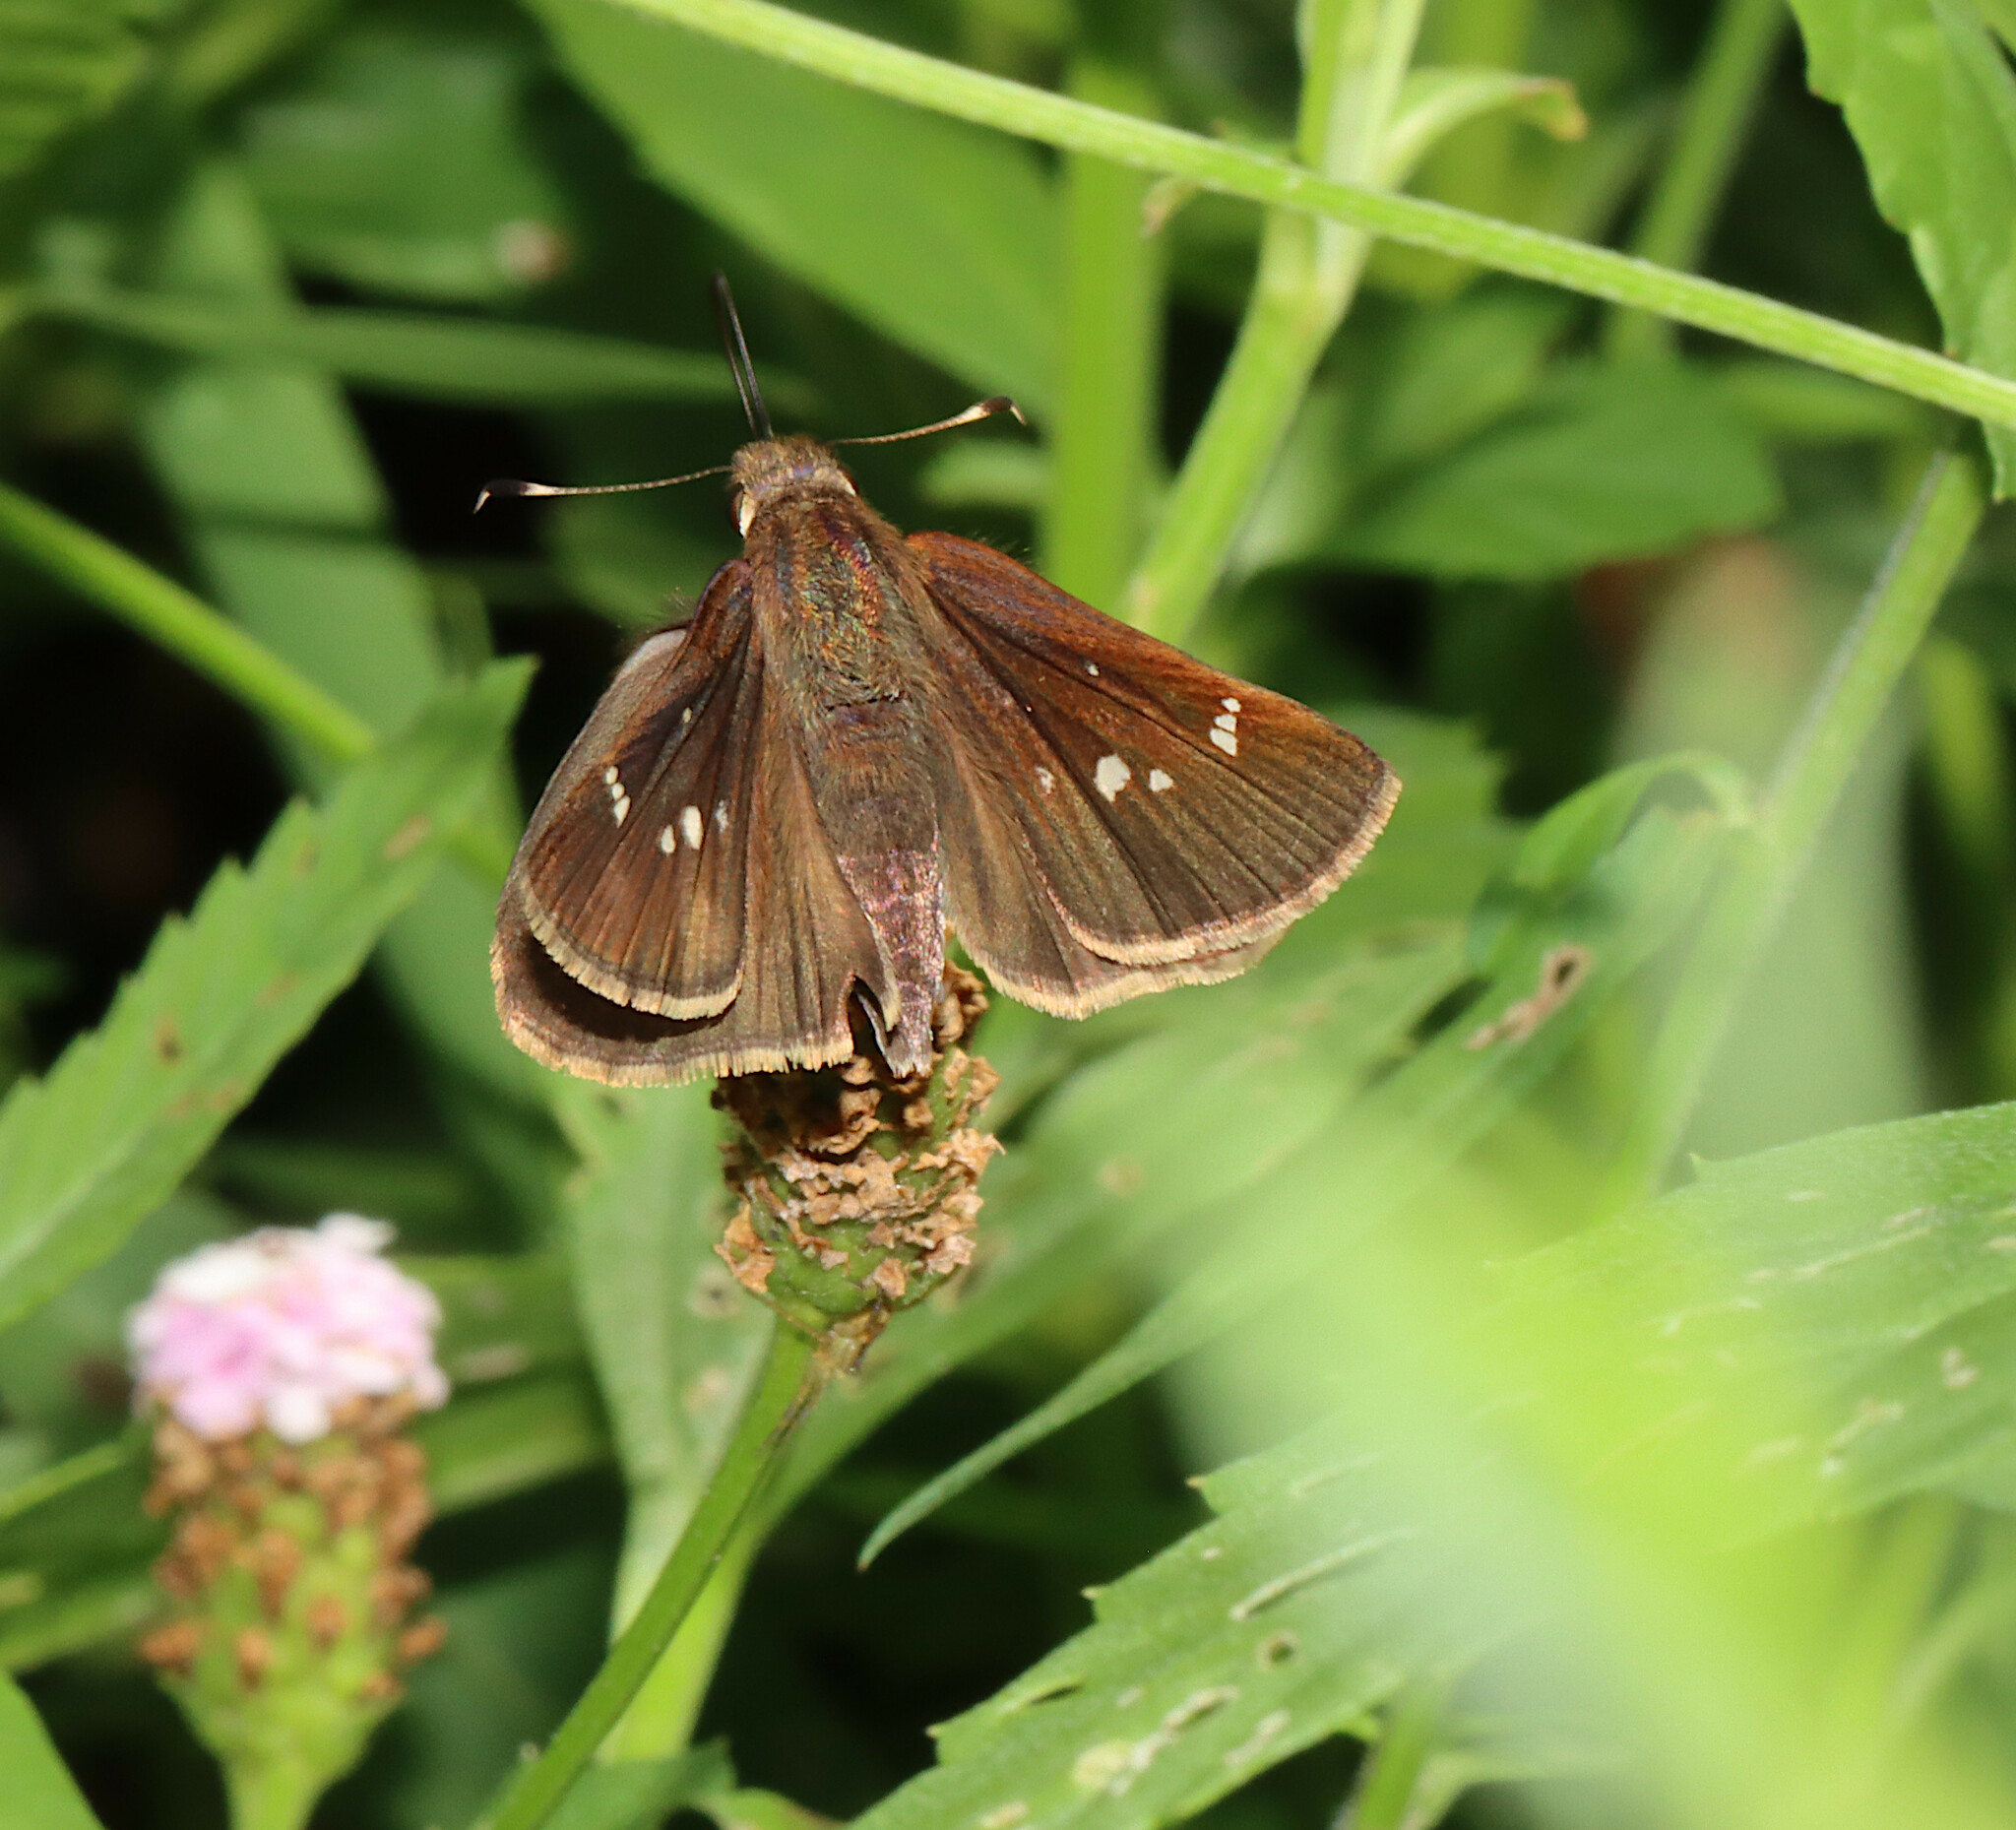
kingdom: Animalia
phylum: Arthropoda
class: Insecta
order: Lepidoptera
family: Hesperiidae
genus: Lerema
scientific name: Lerema accius
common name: Clouded skipper
